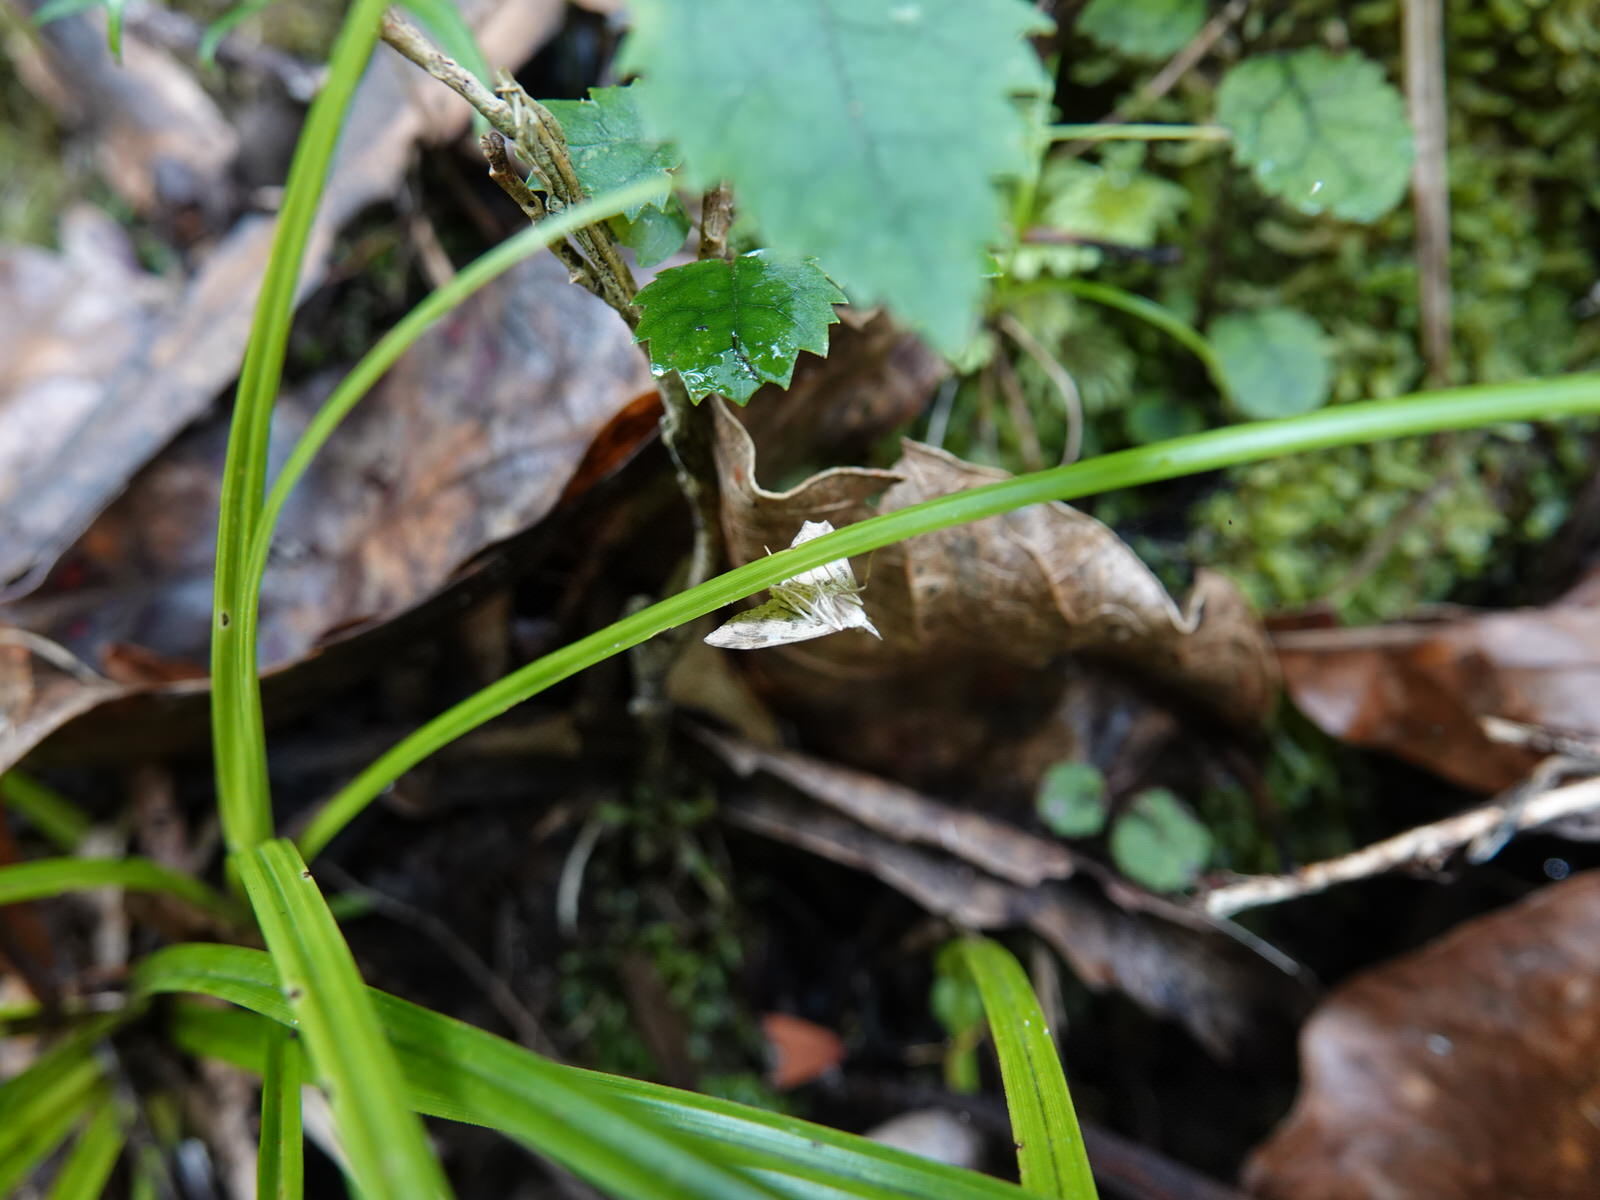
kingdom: Animalia
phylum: Arthropoda
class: Insecta
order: Lepidoptera
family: Crambidae
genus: Udea
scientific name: Udea Mnesictena marmarina
